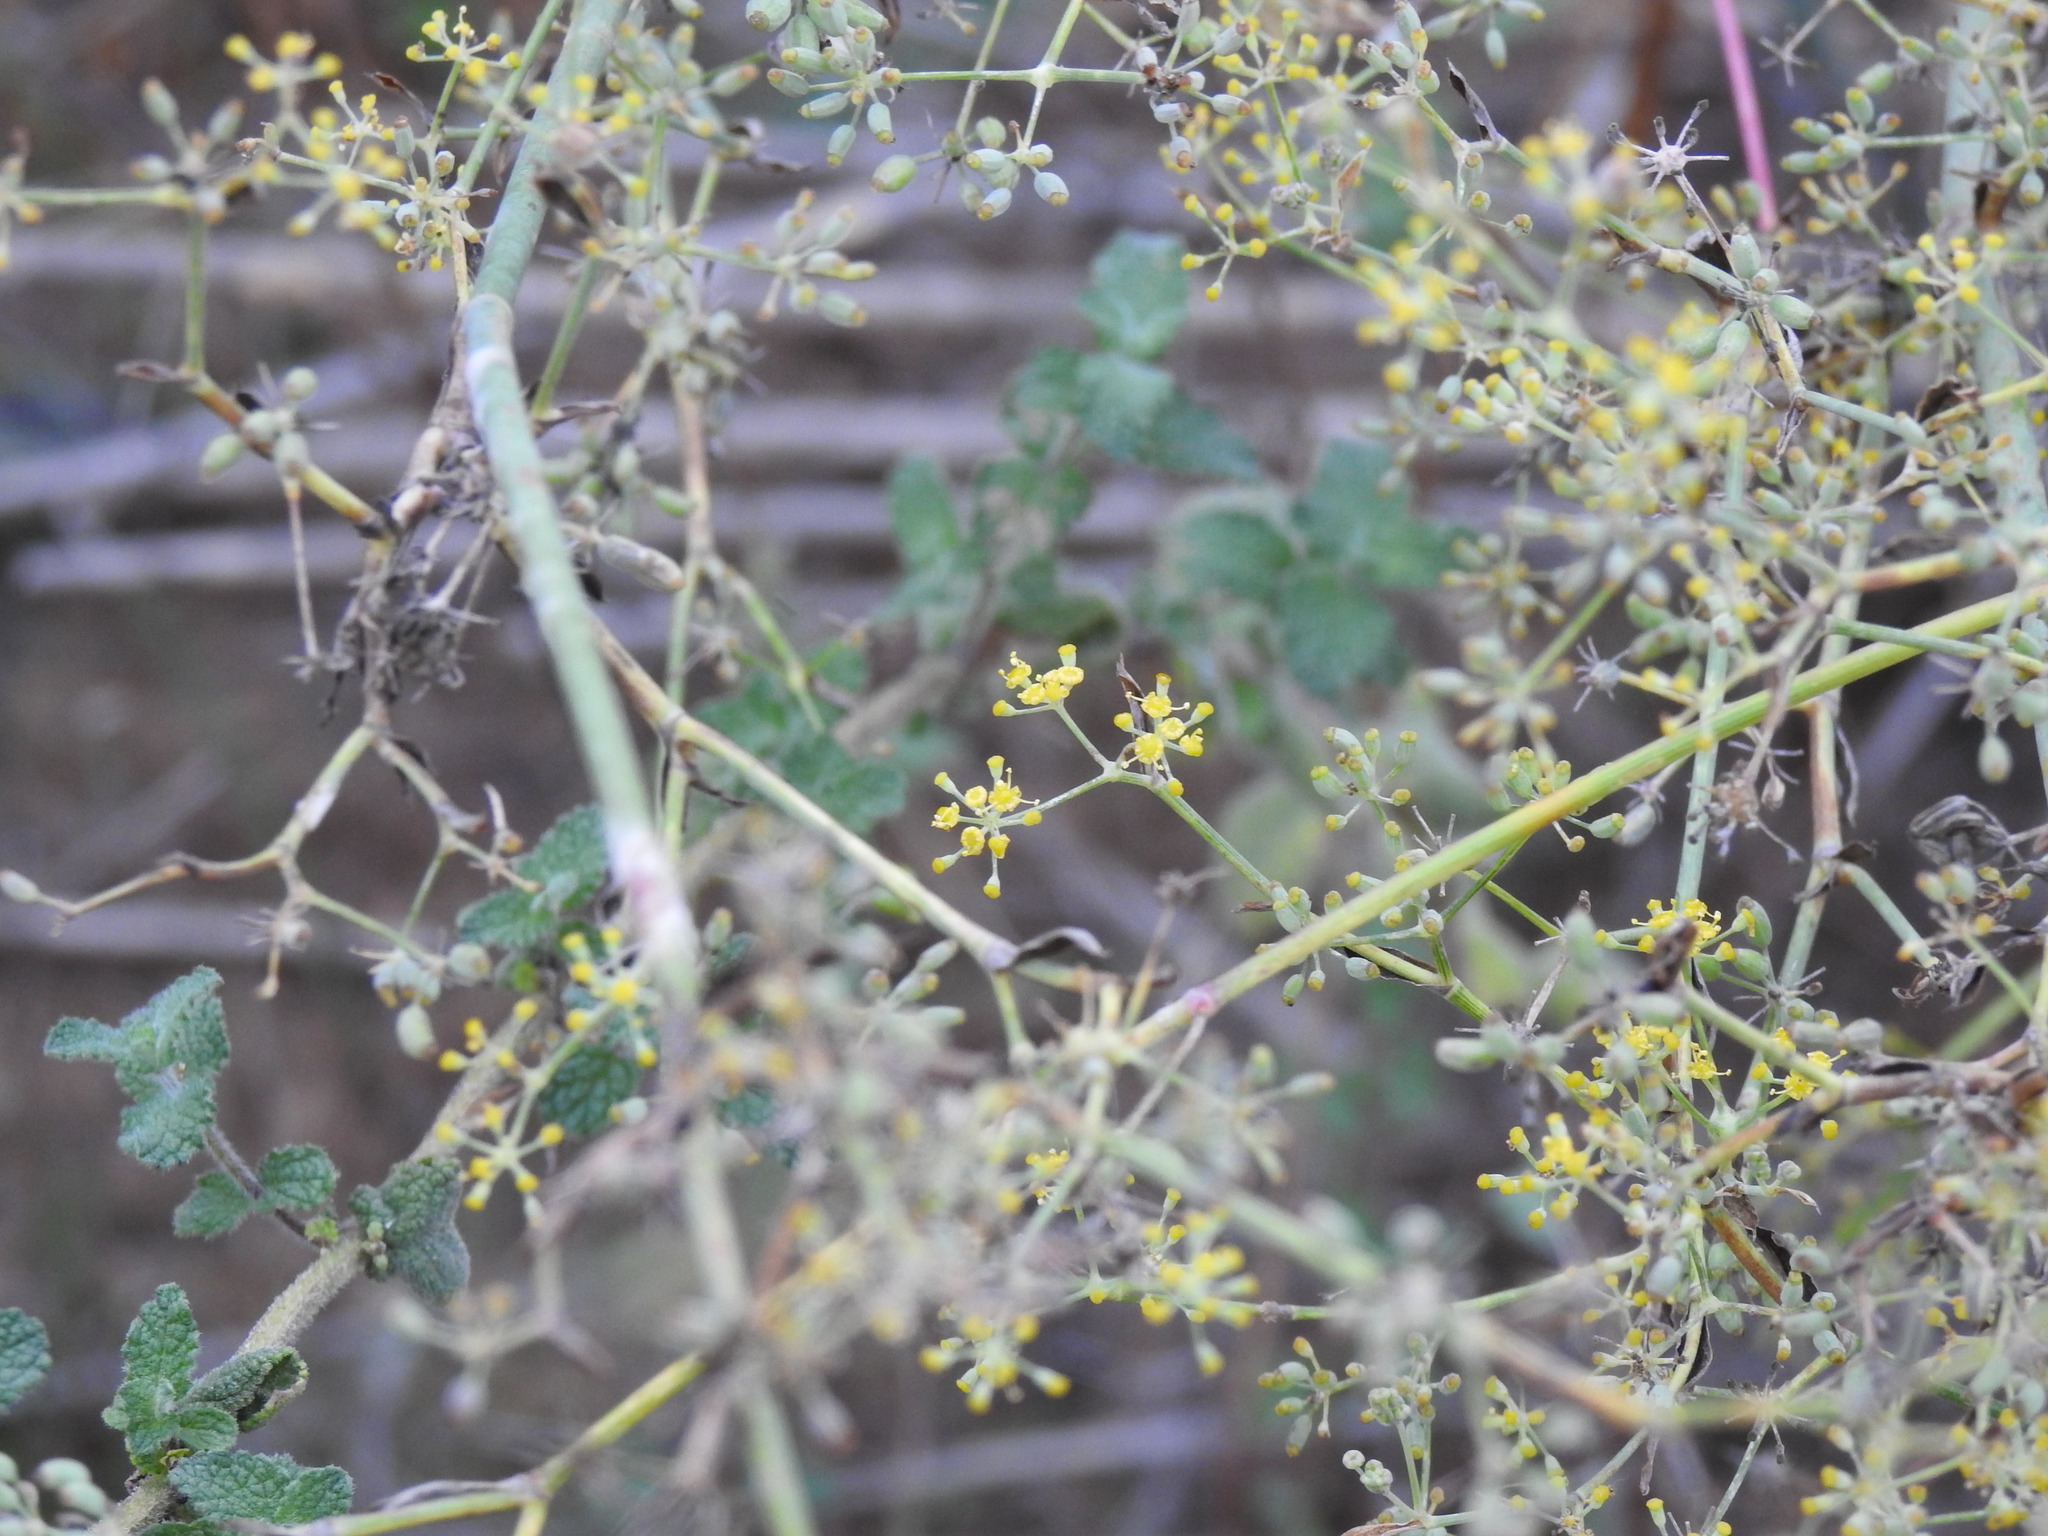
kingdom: Plantae
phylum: Tracheophyta
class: Magnoliopsida
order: Apiales
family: Apiaceae
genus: Foeniculum
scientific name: Foeniculum vulgare
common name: Fennel
